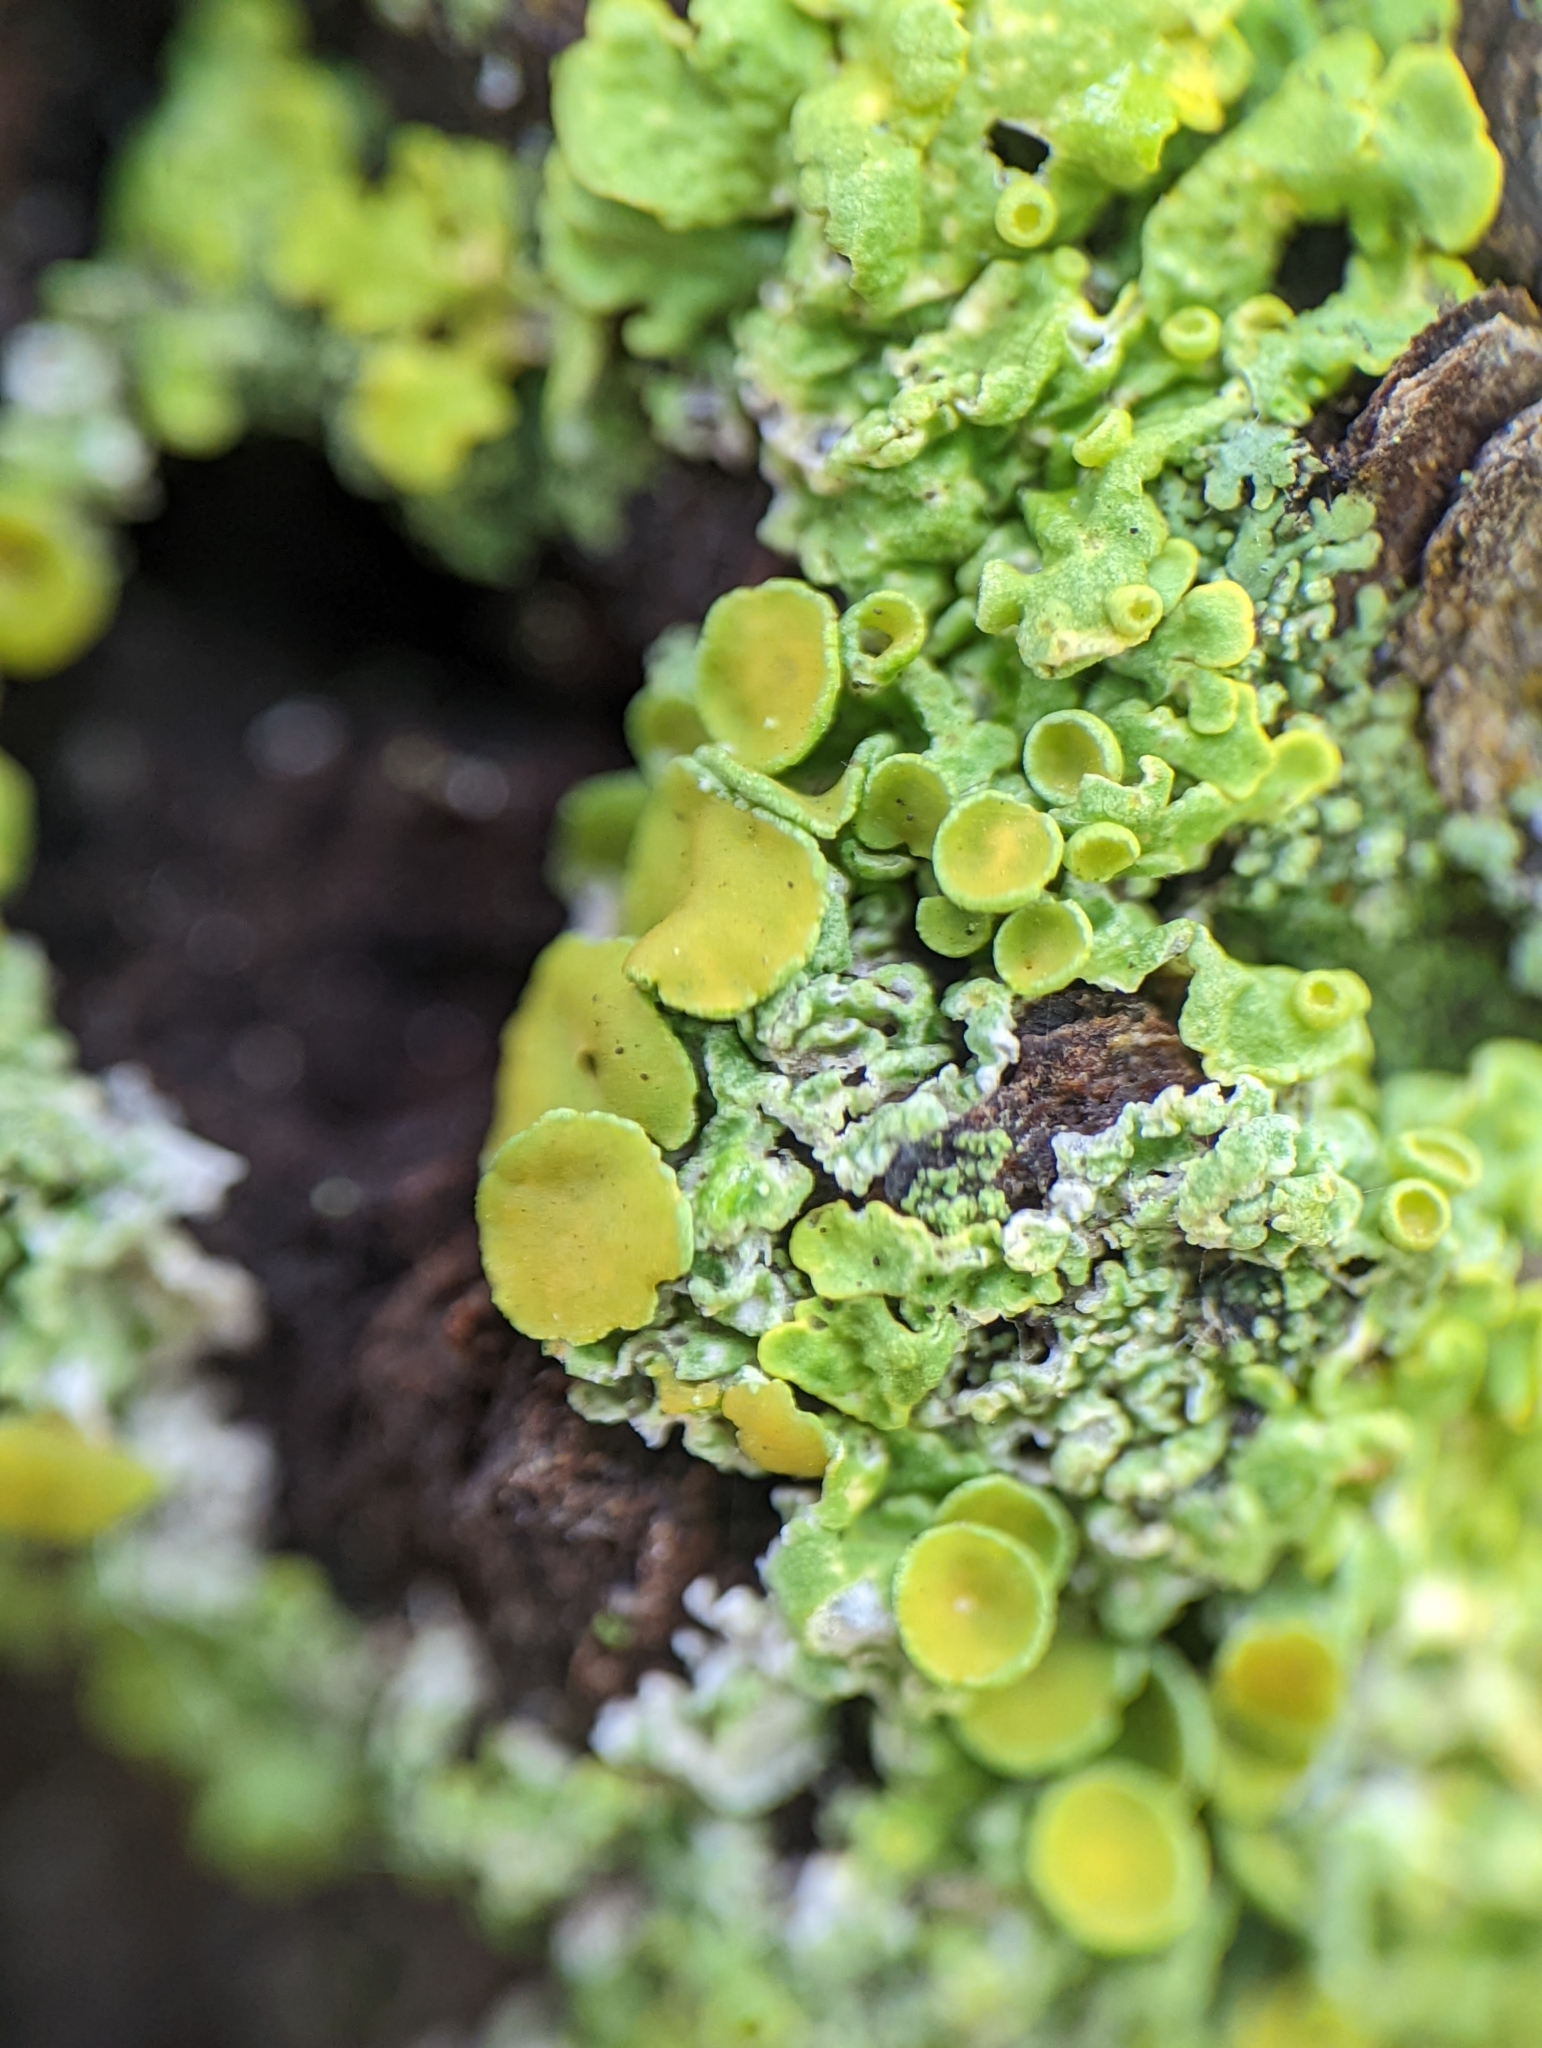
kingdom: Fungi
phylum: Ascomycota
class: Lecanoromycetes
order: Teloschistales
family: Teloschistaceae
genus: Xanthoria
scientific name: Xanthoria parietina
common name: Common orange lichen
